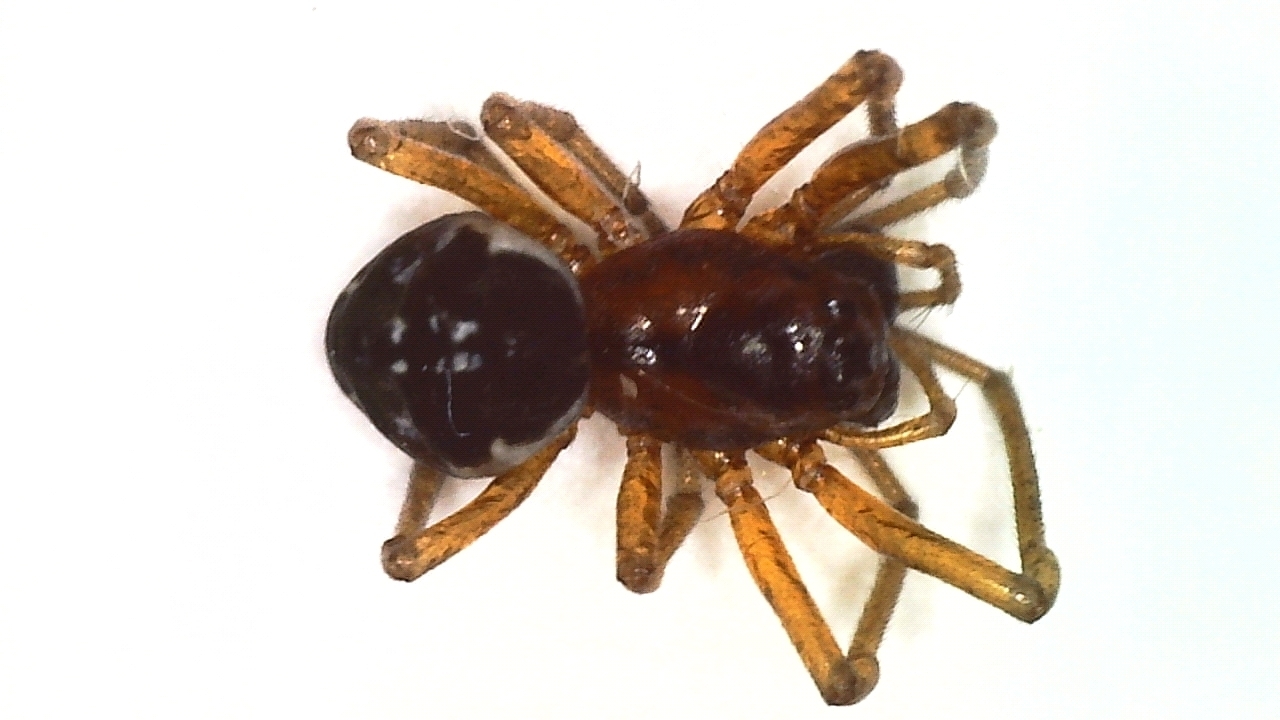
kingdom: Animalia
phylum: Arthropoda
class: Arachnida
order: Araneae
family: Tetragnathidae
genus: Pachygnatha
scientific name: Pachygnatha listeri
